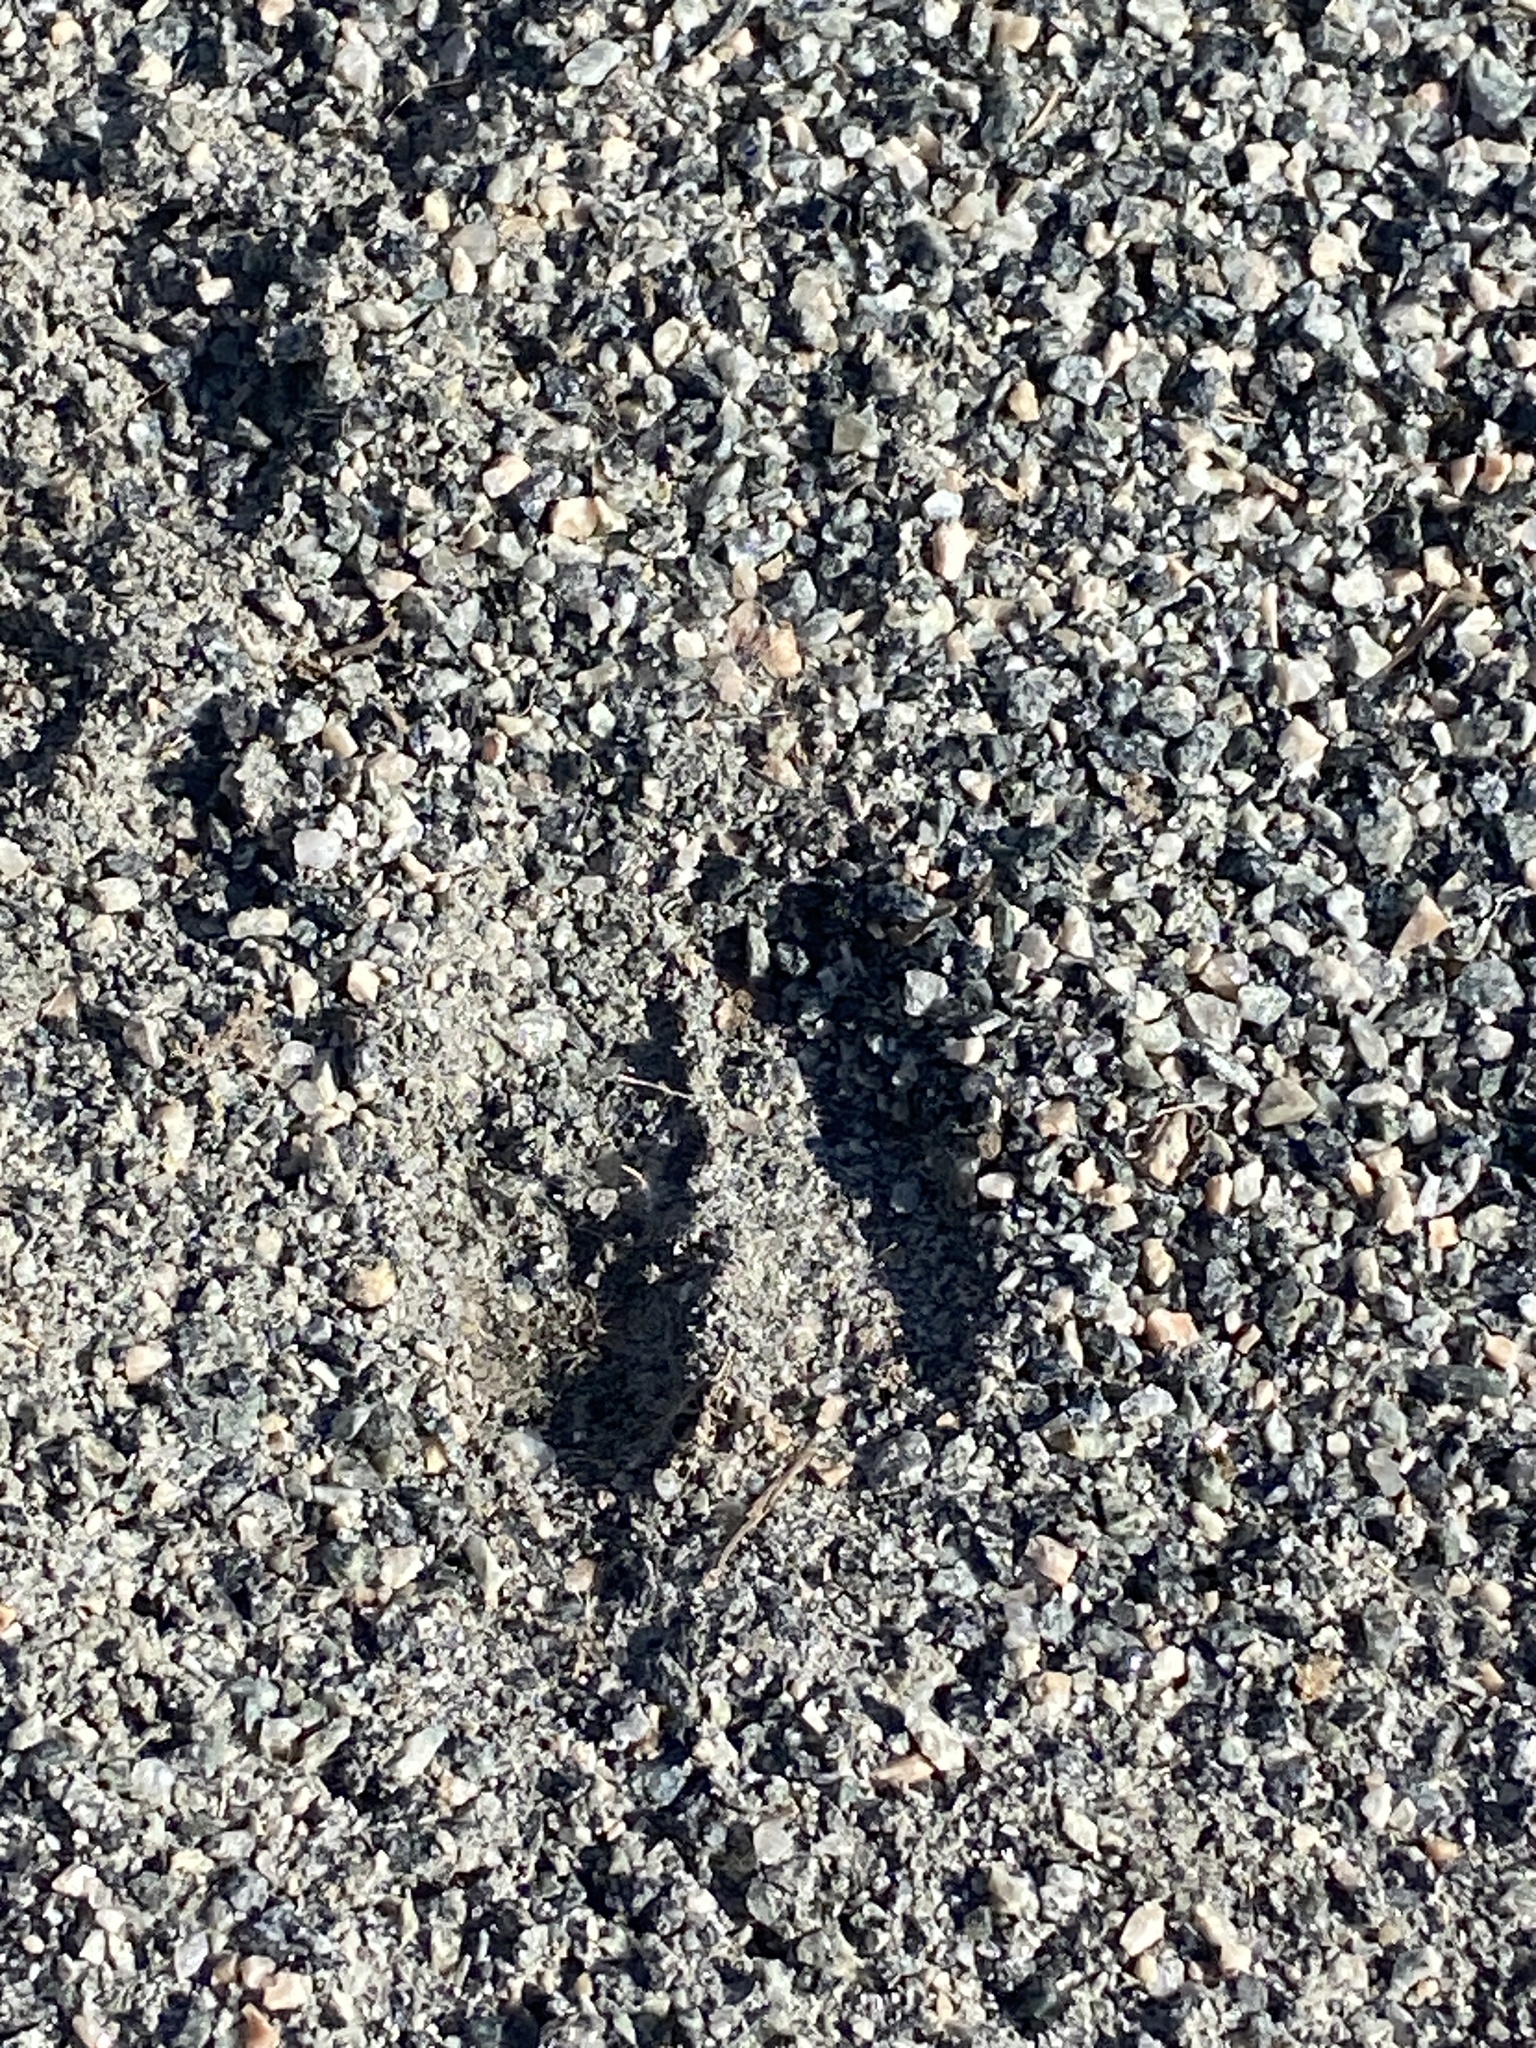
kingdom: Animalia
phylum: Chordata
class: Mammalia
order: Artiodactyla
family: Cervidae
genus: Odocoileus
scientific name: Odocoileus virginianus
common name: White-tailed deer
